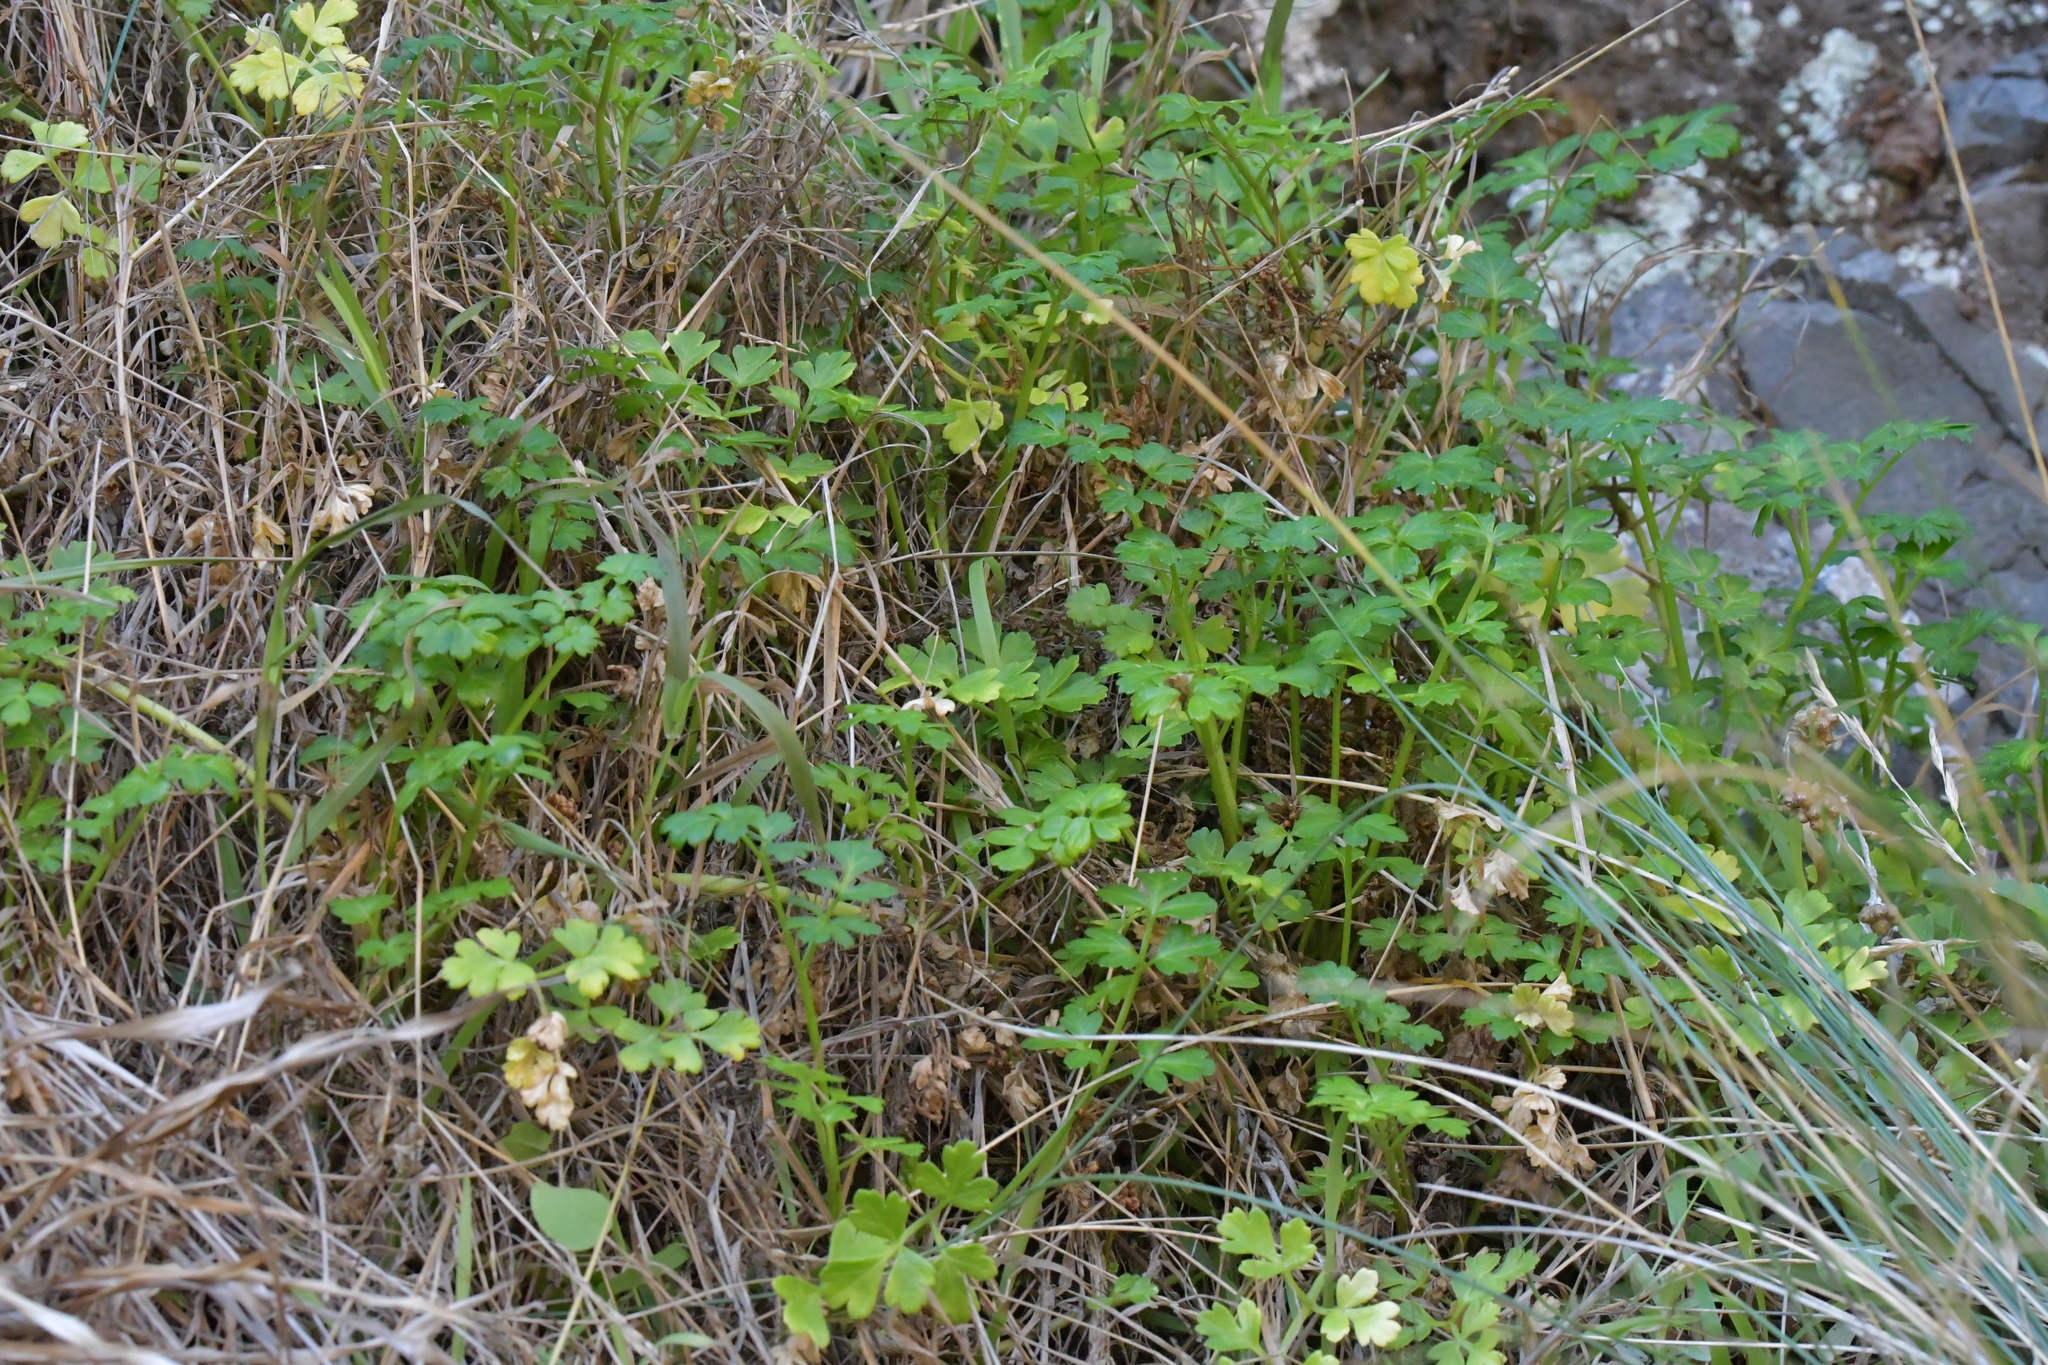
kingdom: Plantae
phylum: Tracheophyta
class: Magnoliopsida
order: Apiales
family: Apiaceae
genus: Apium
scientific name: Apium prostratum
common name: Prostrate marshwort
